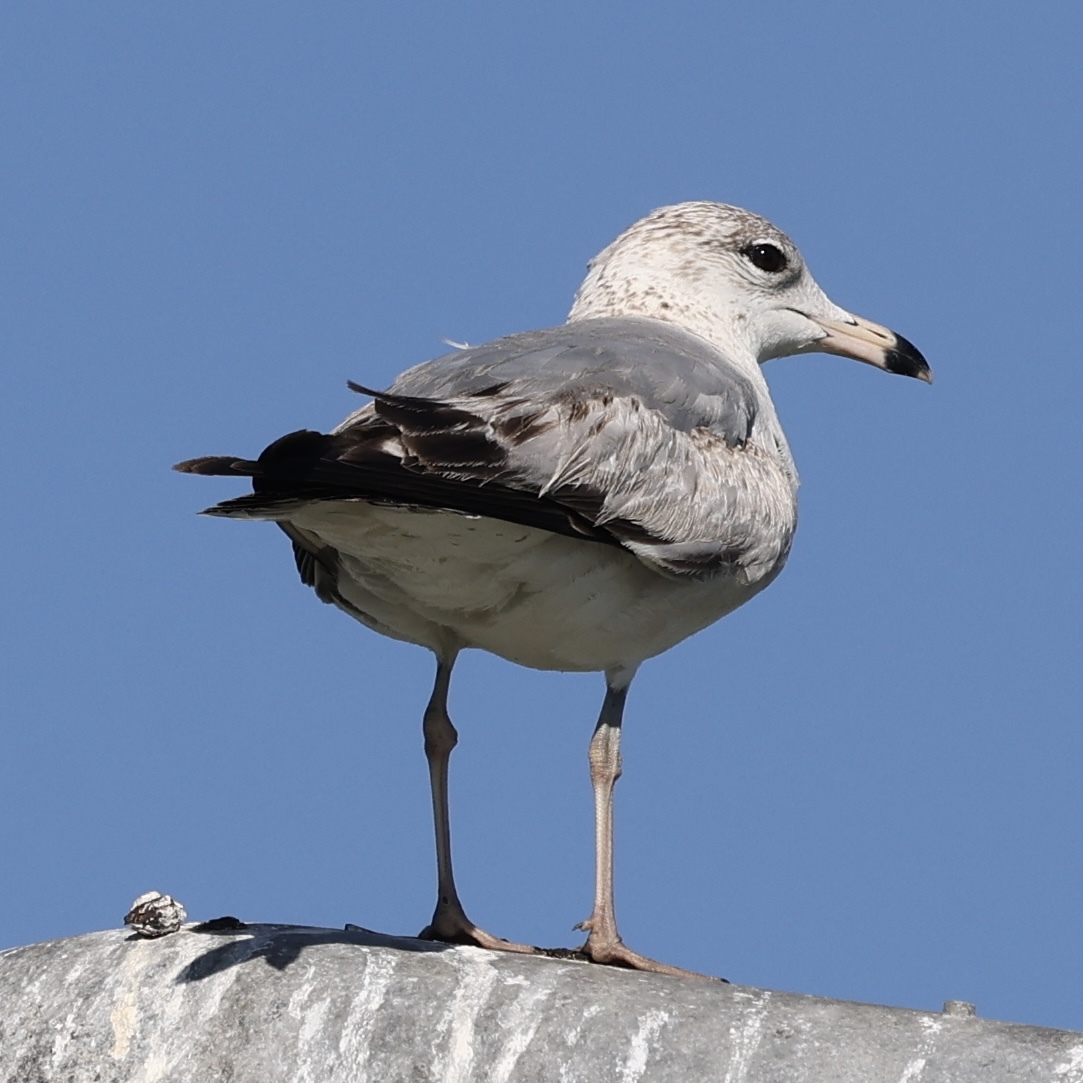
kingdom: Animalia
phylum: Chordata
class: Aves
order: Charadriiformes
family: Laridae
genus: Larus
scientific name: Larus delawarensis
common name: Ring-billed gull
